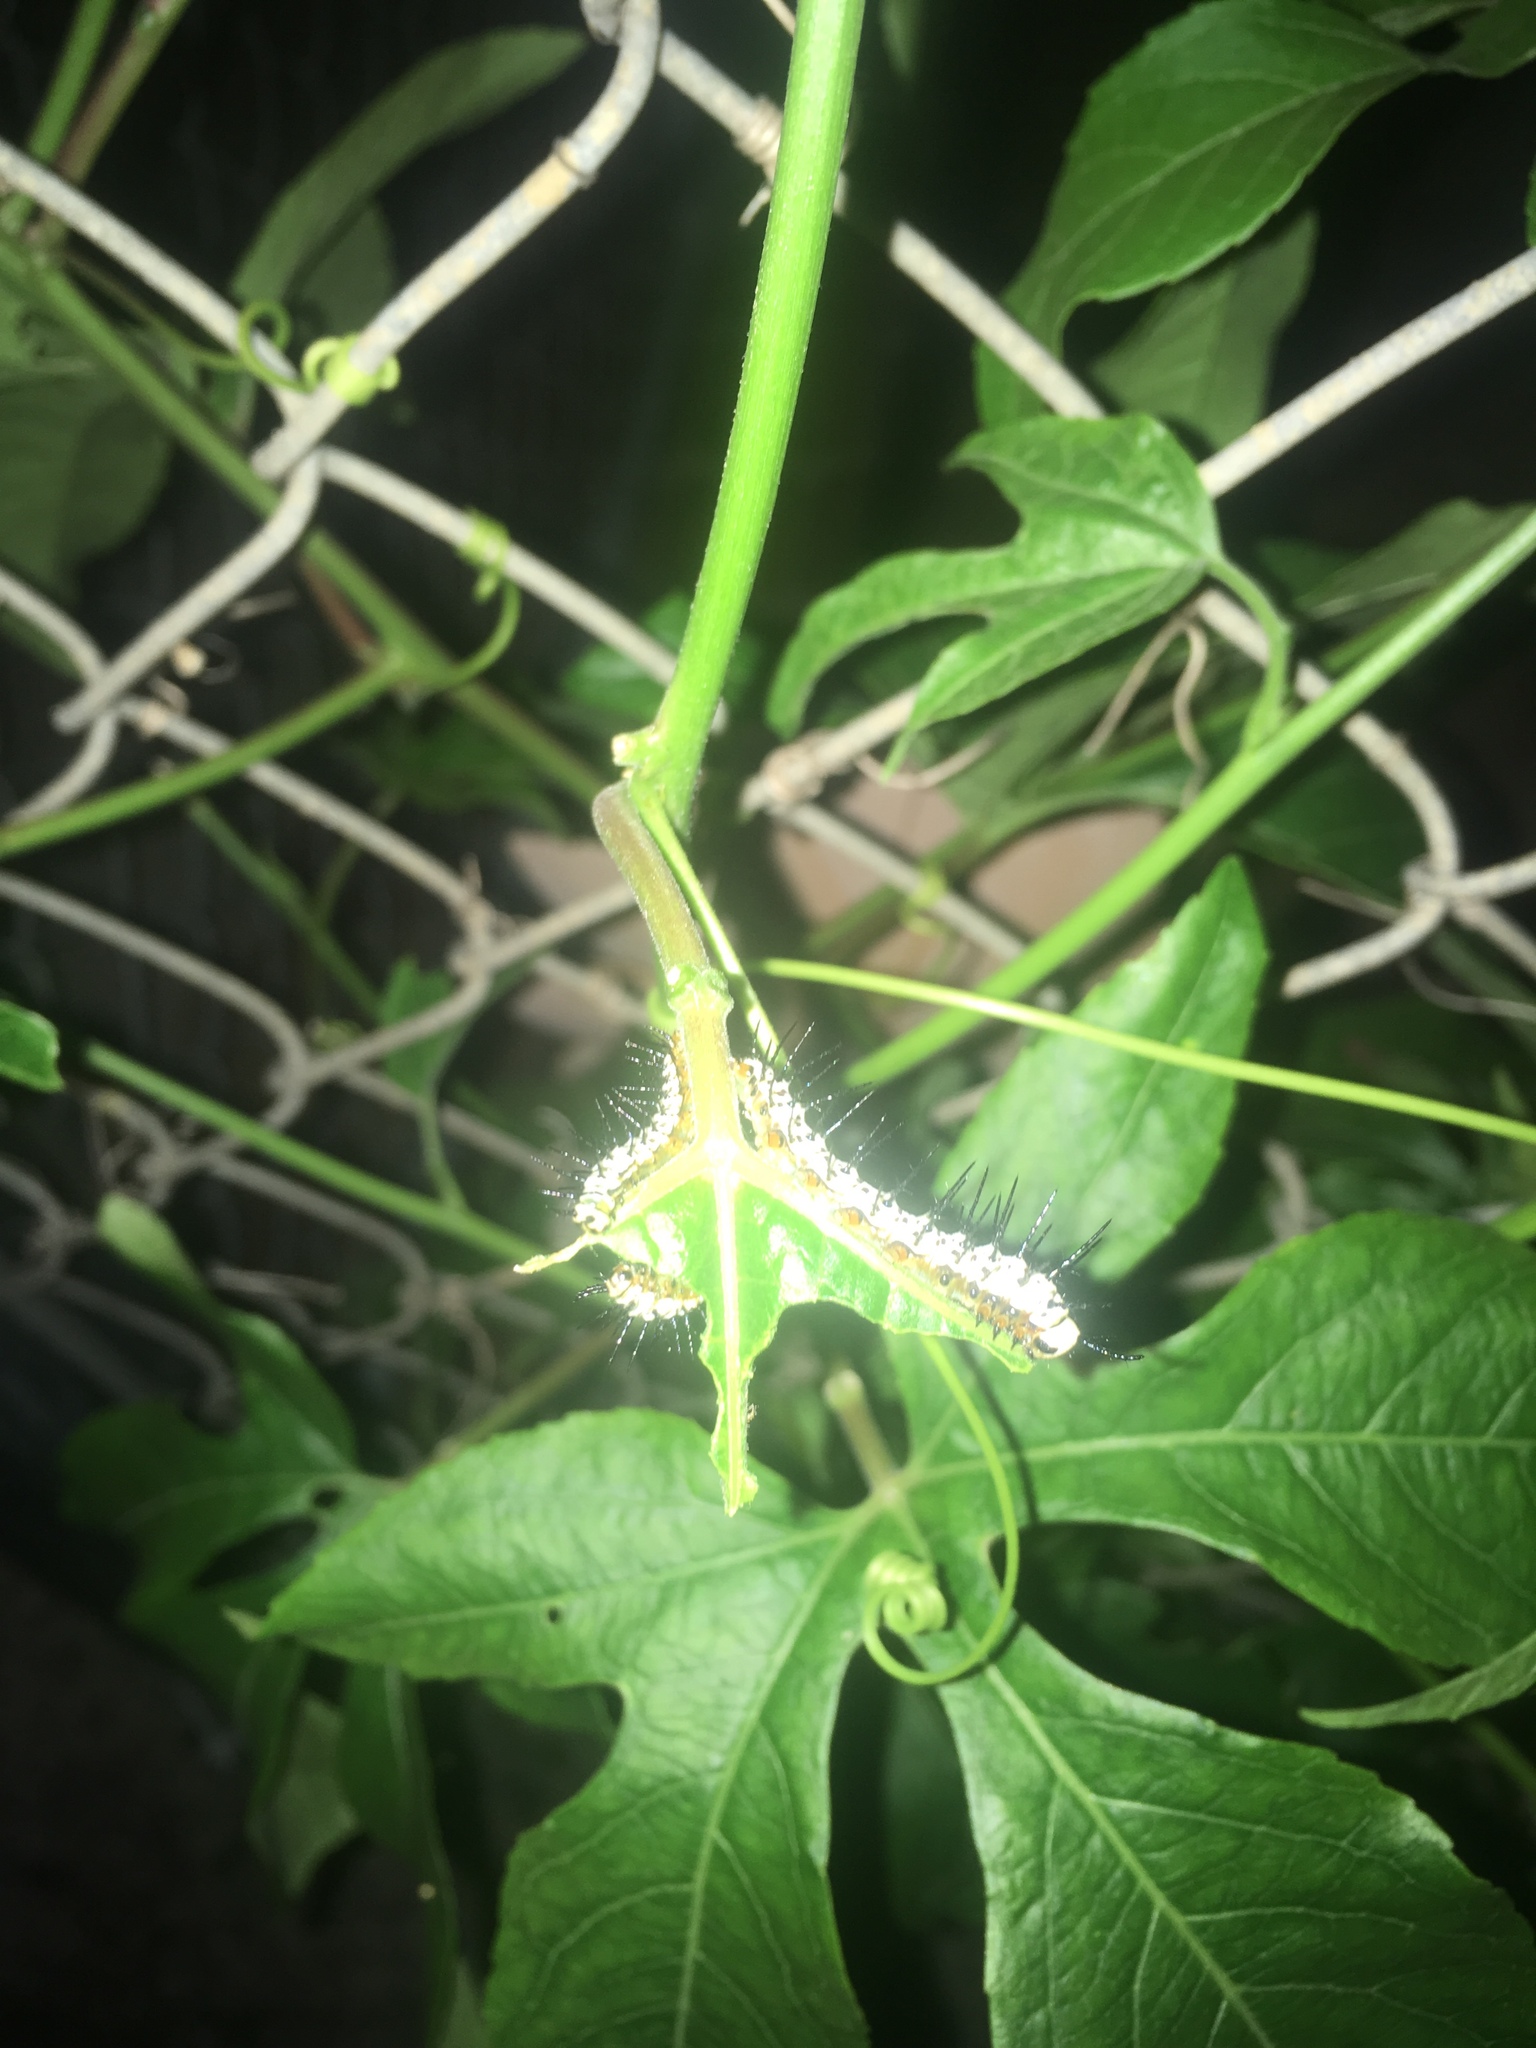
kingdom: Animalia
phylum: Arthropoda
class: Insecta
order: Lepidoptera
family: Nymphalidae
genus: Heliconius
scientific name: Heliconius charithonia
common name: Zebra long wing
